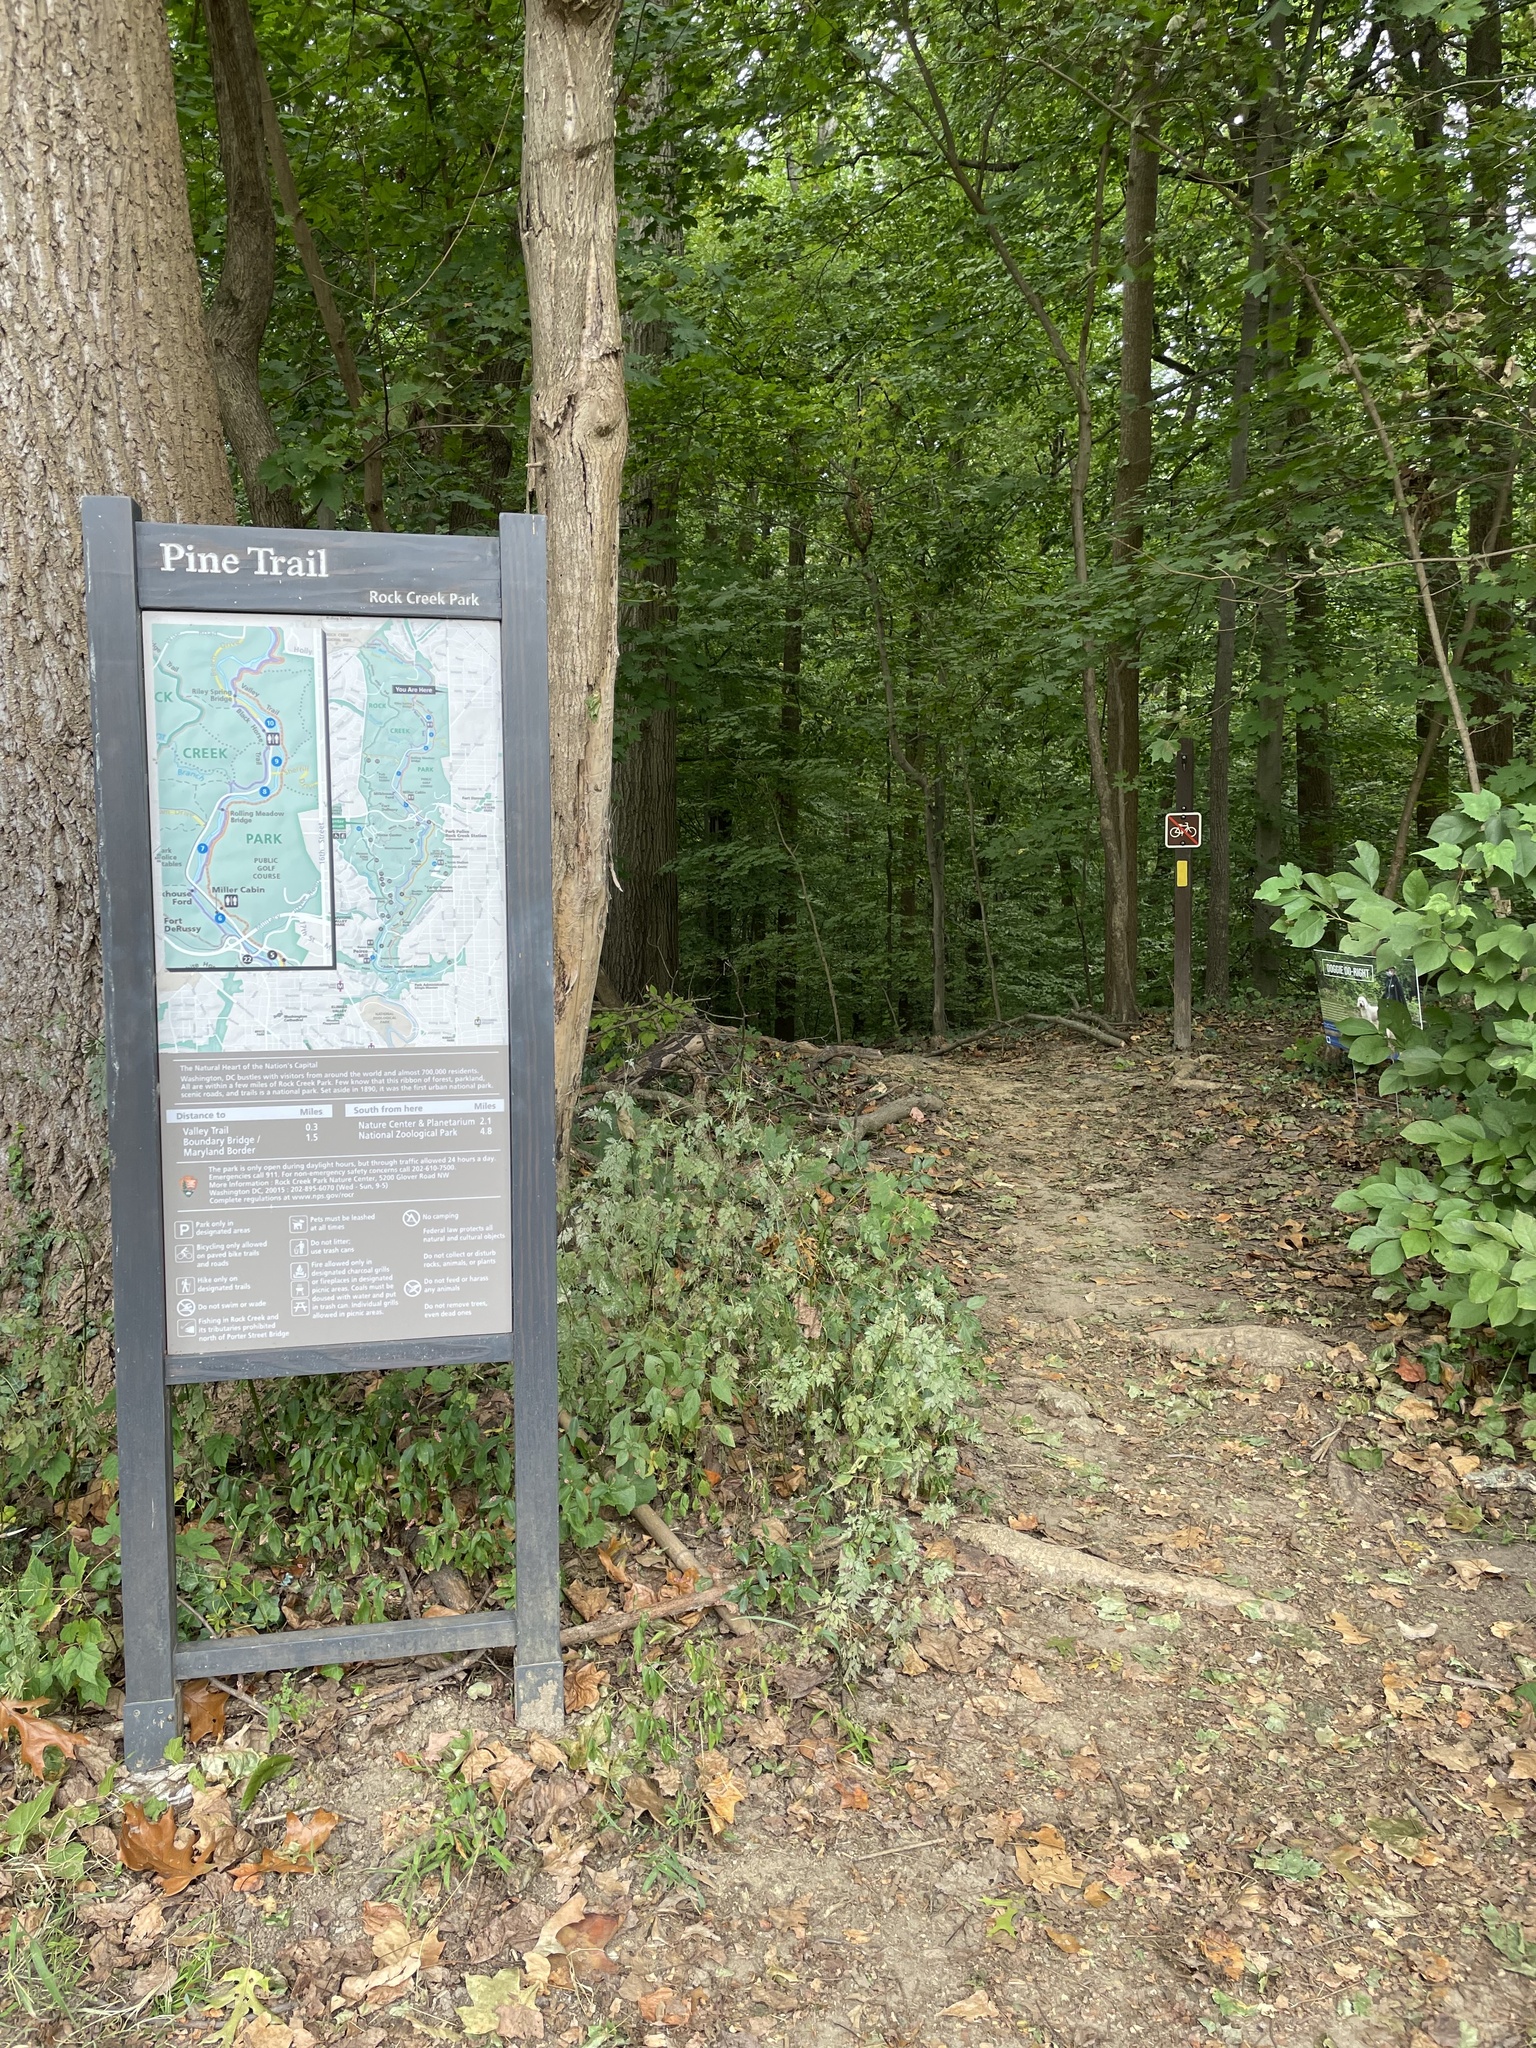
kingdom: Plantae
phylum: Tracheophyta
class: Magnoliopsida
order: Magnoliales
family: Magnoliaceae
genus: Liriodendron
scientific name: Liriodendron tulipifera
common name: Tulip tree
